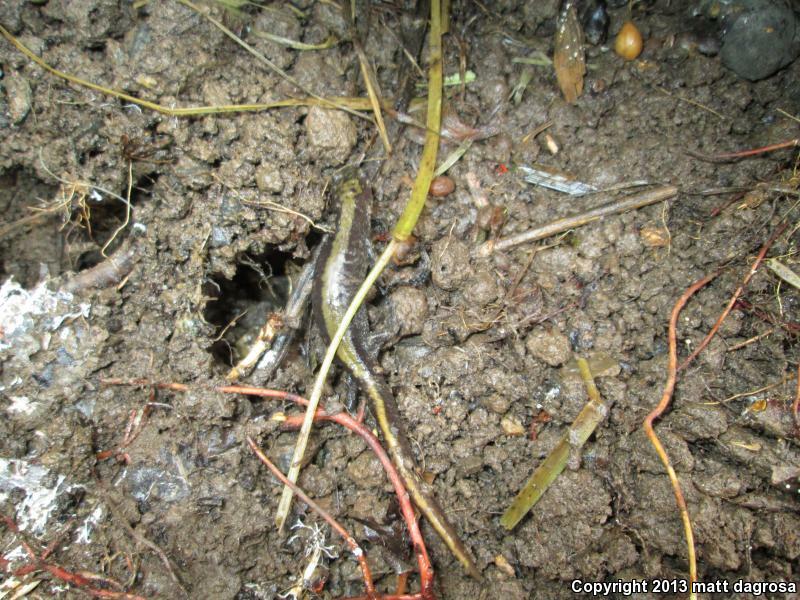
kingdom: Animalia
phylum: Chordata
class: Amphibia
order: Caudata
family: Ambystomatidae
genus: Ambystoma
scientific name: Ambystoma macrodactylum
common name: Long-toed salamander
